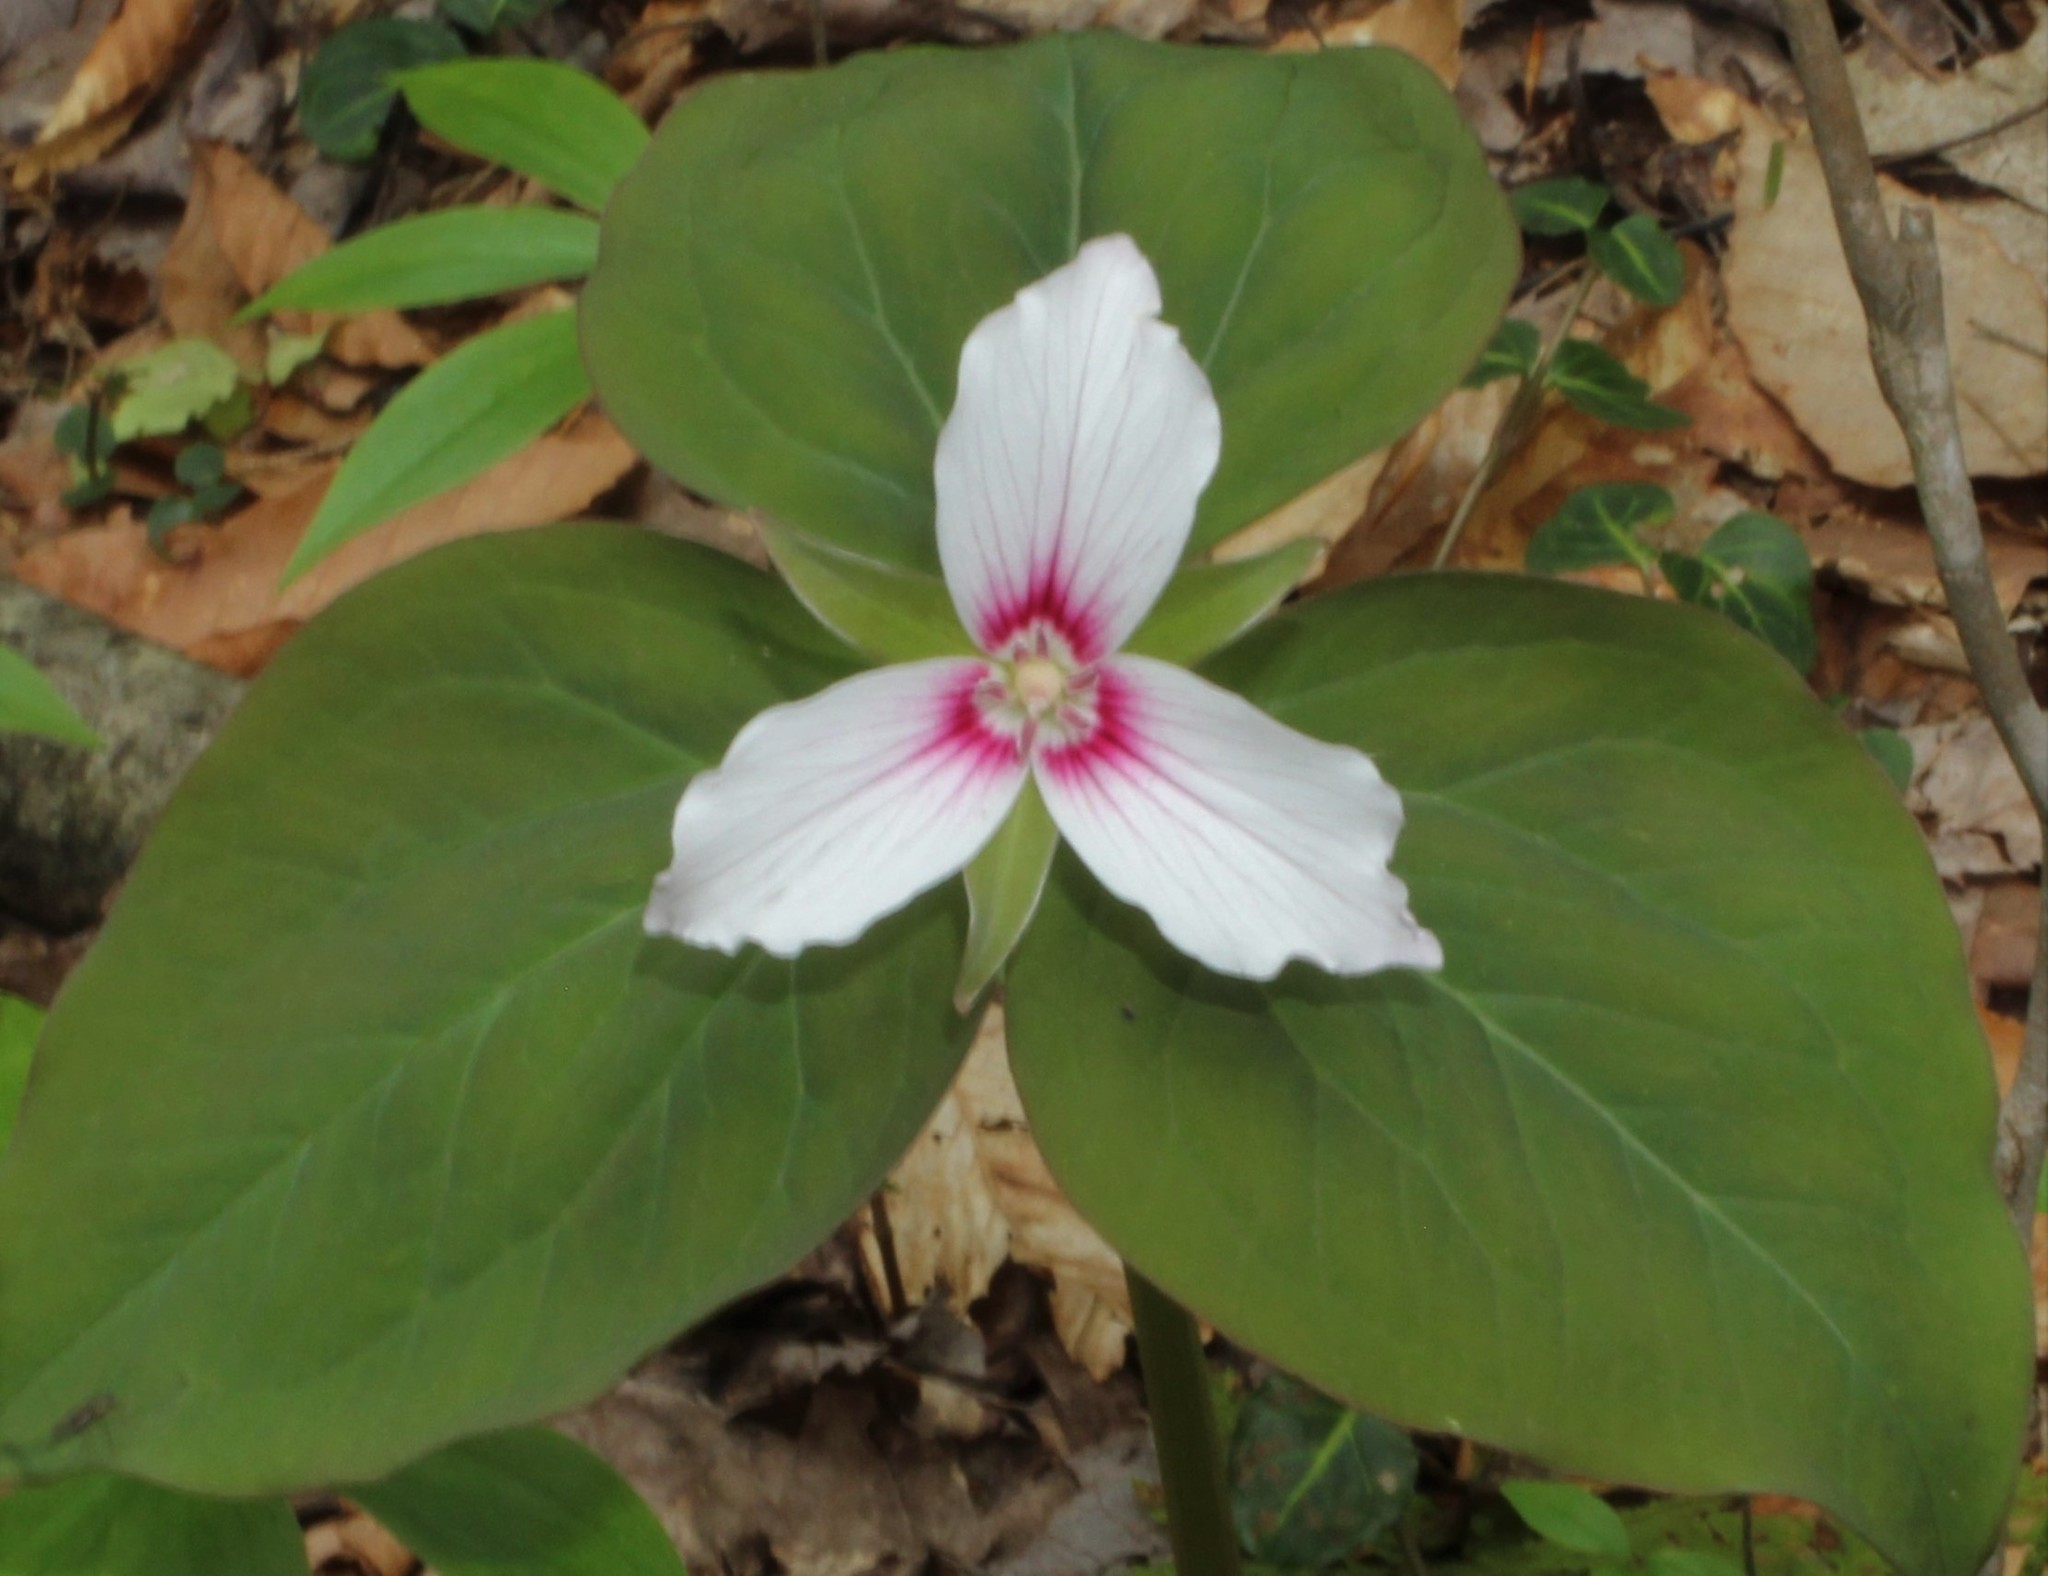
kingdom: Plantae
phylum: Tracheophyta
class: Liliopsida
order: Liliales
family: Melanthiaceae
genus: Trillium
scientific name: Trillium undulatum
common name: Paint trillium
